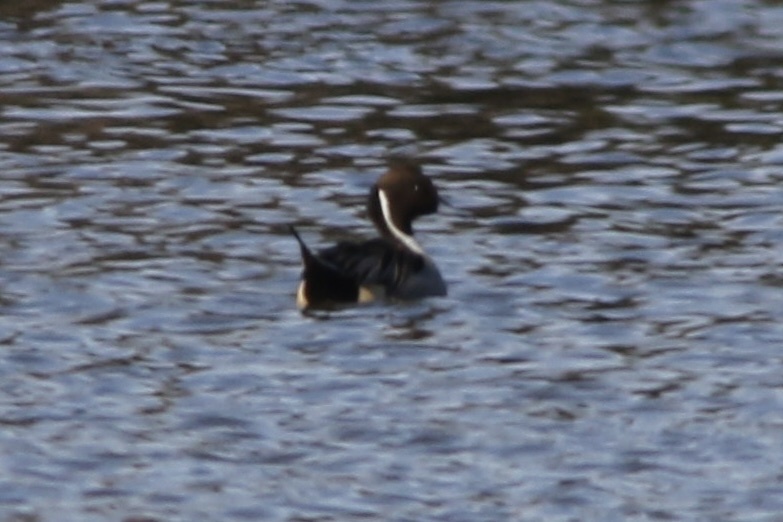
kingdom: Animalia
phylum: Chordata
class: Aves
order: Anseriformes
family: Anatidae
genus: Anas
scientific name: Anas acuta
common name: Northern pintail
